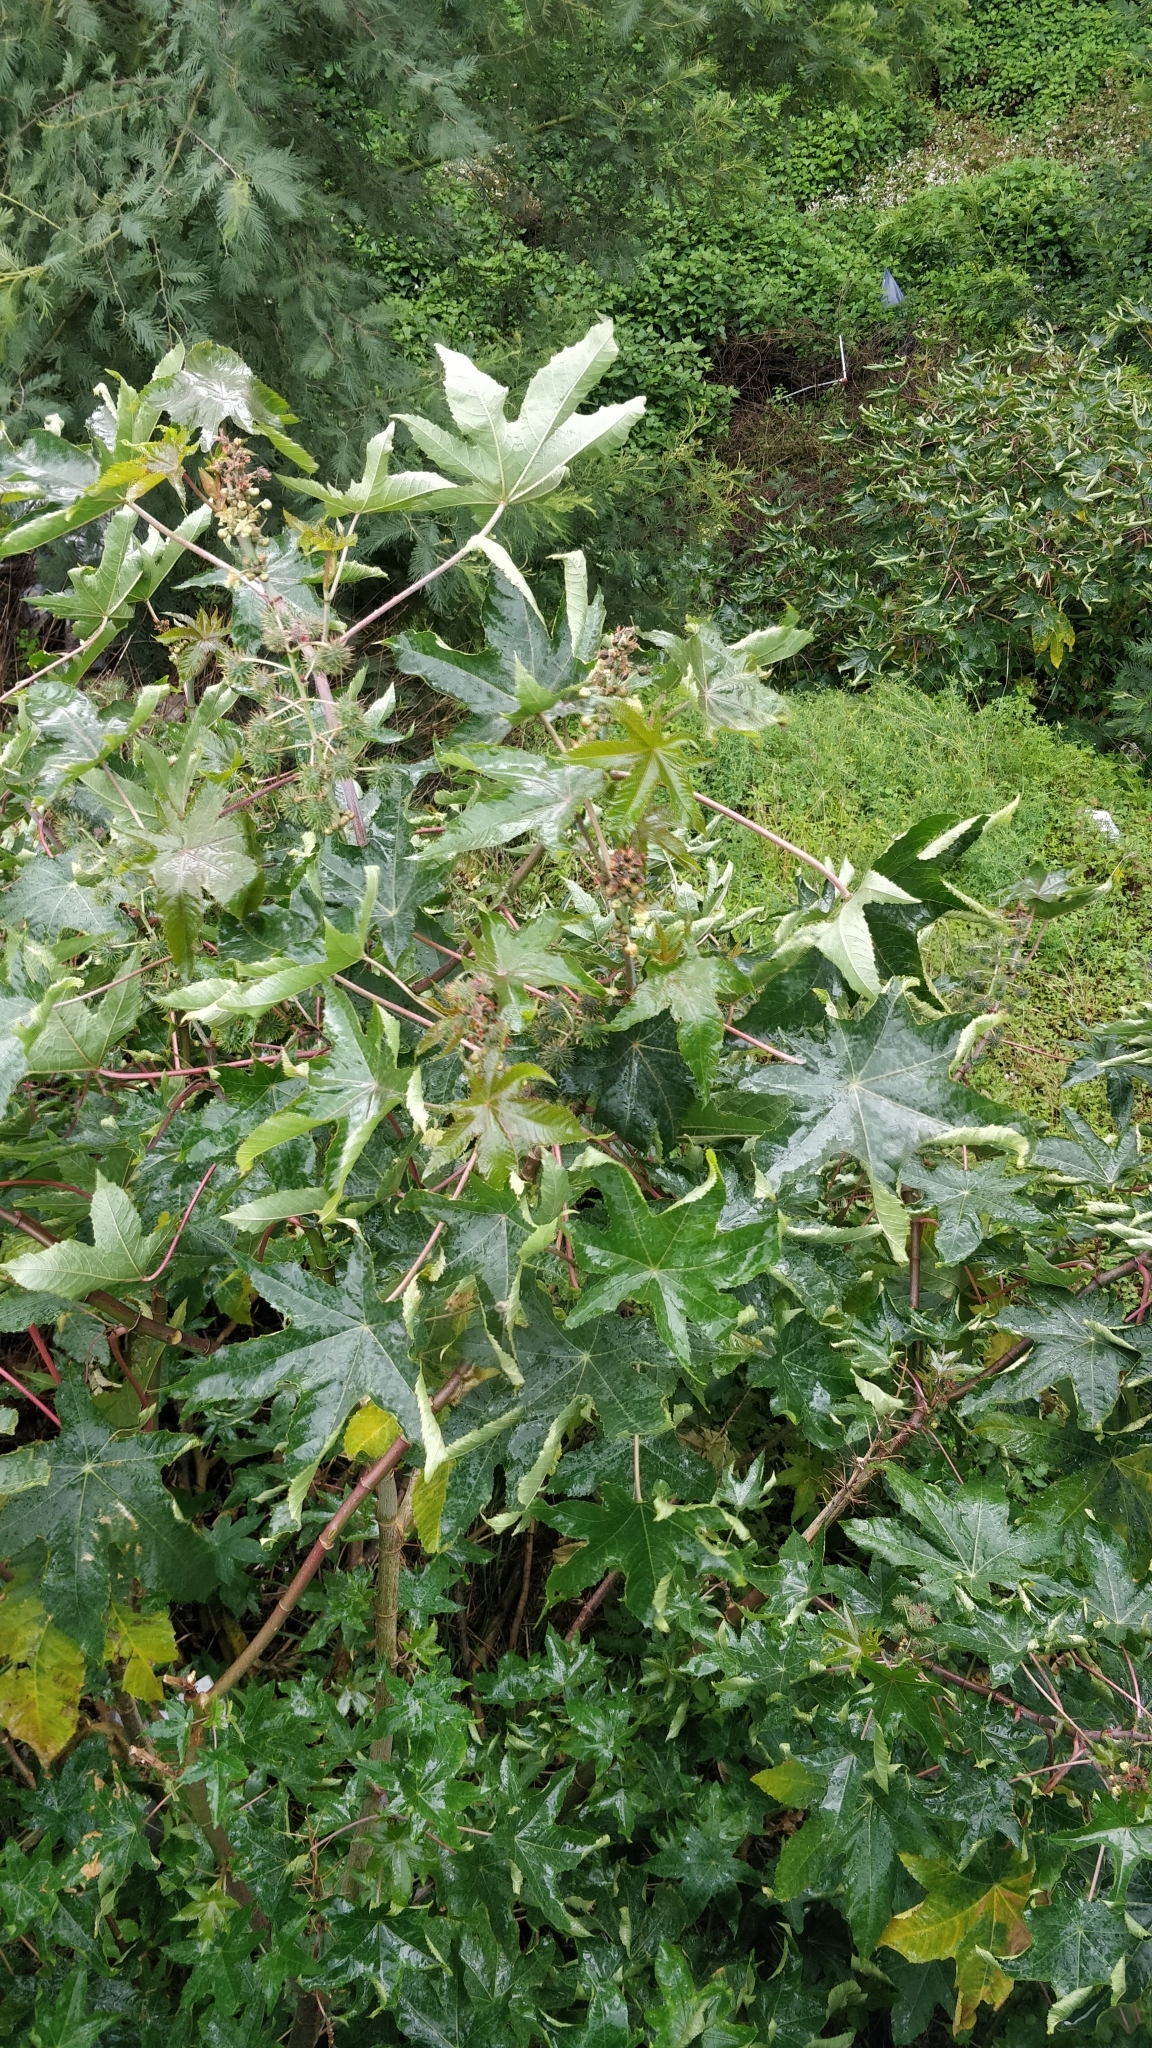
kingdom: Plantae
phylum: Tracheophyta
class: Magnoliopsida
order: Malpighiales
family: Euphorbiaceae
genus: Ricinus
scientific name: Ricinus communis
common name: Castor-oil-plant
